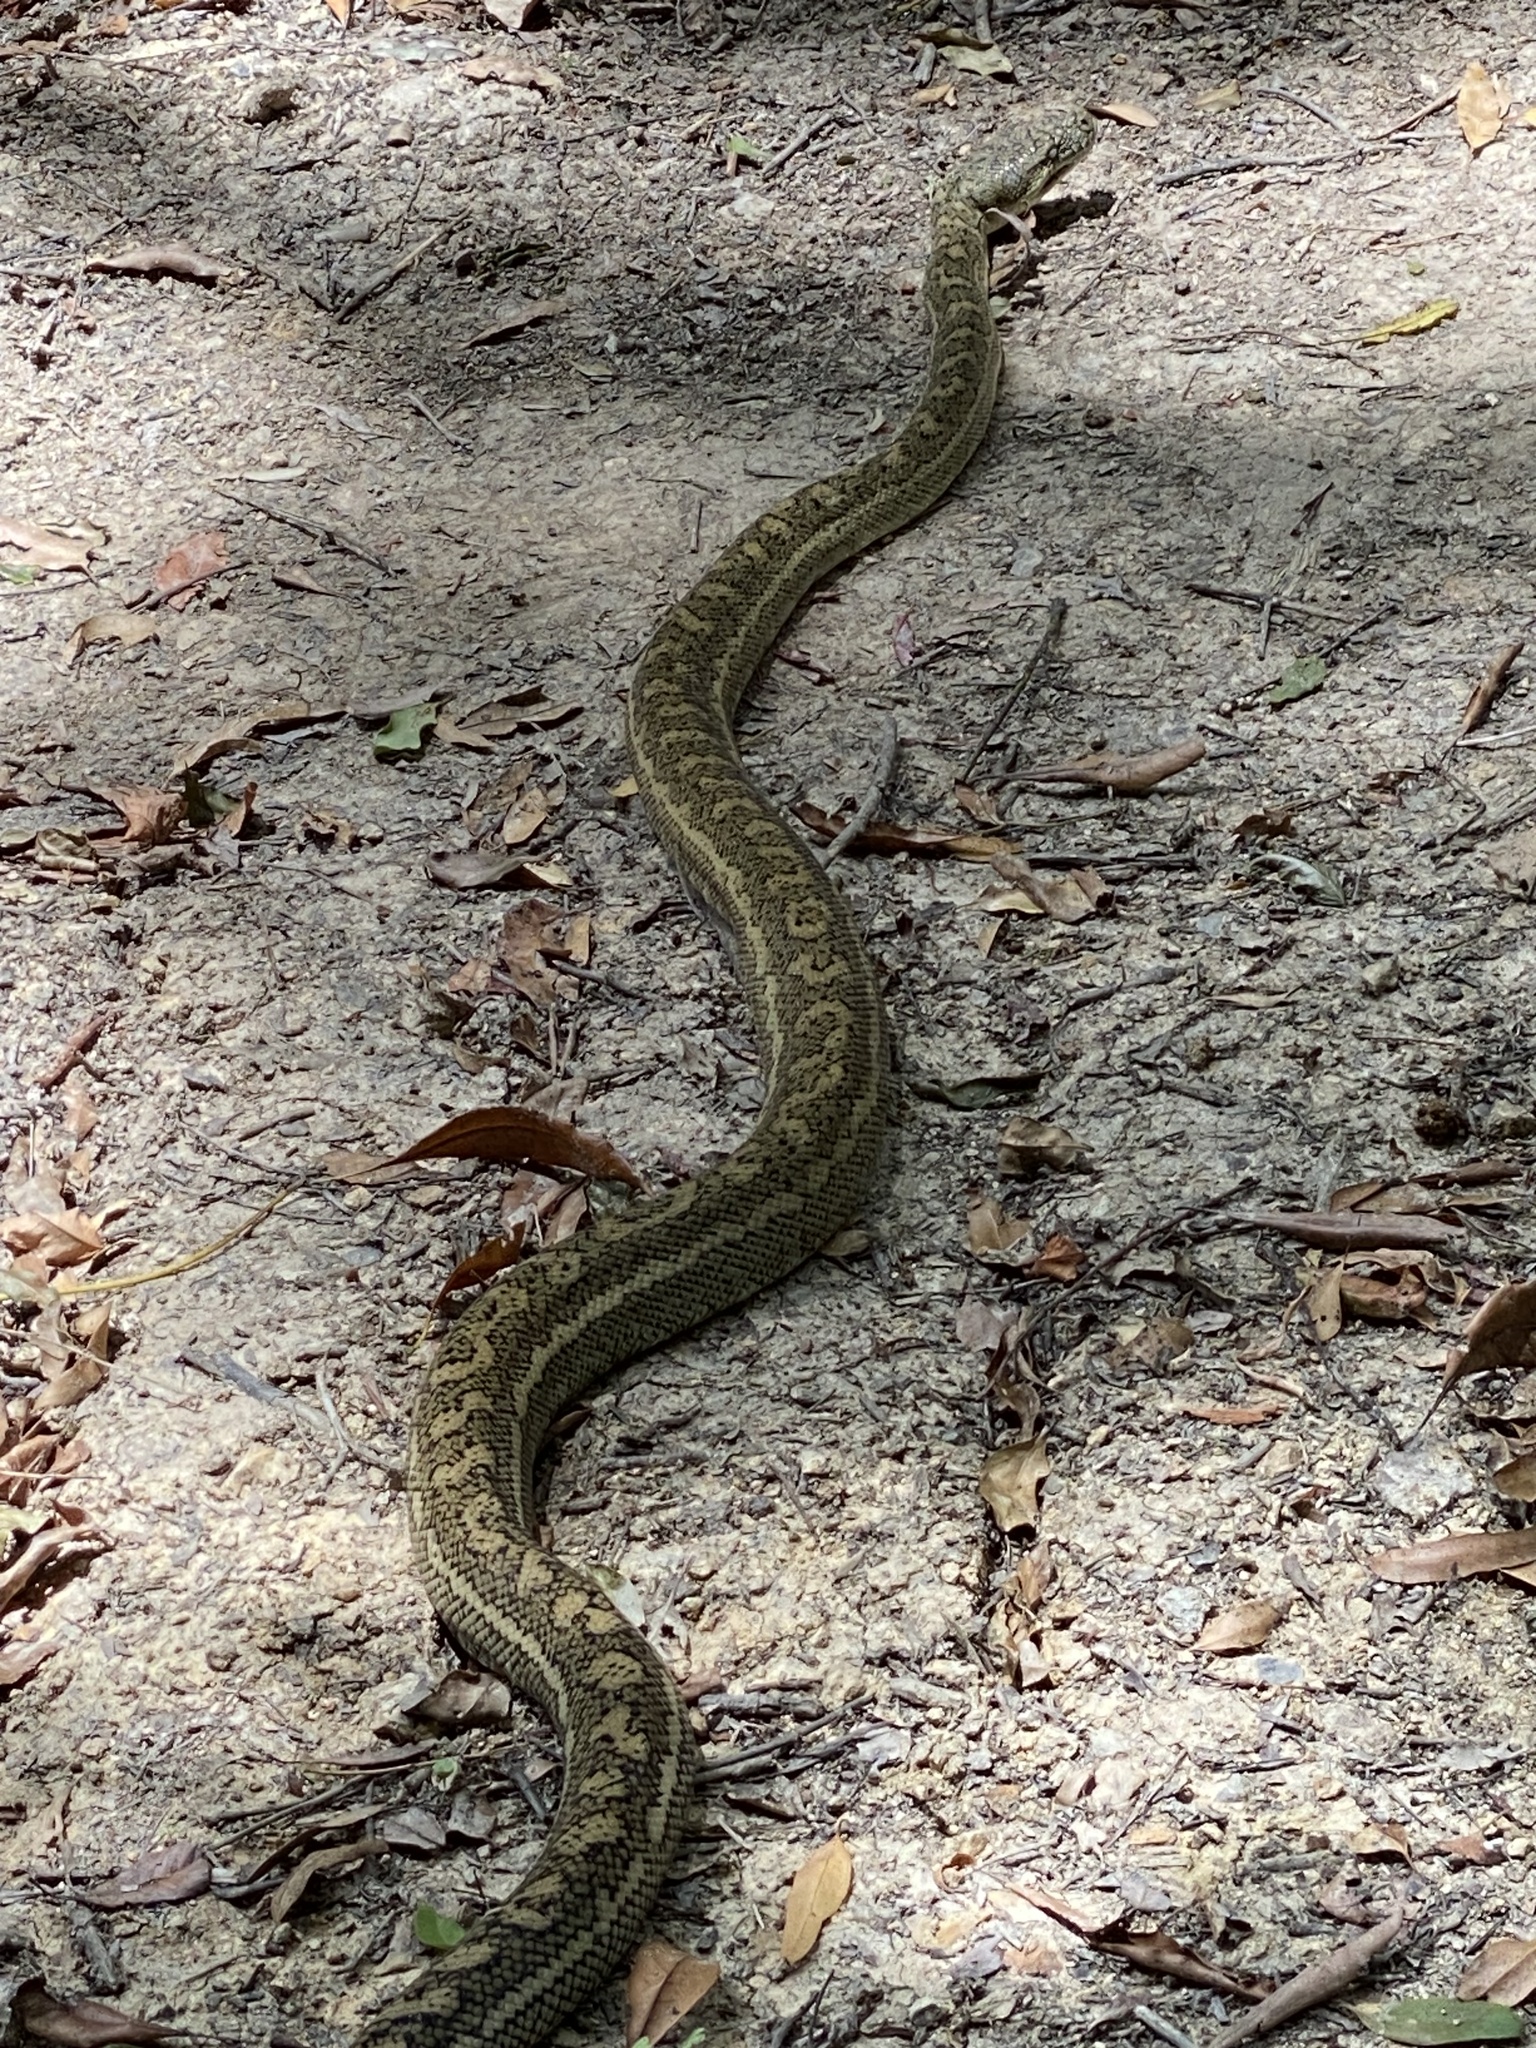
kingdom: Animalia
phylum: Chordata
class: Squamata
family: Pythonidae
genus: Morelia
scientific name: Morelia spilota
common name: Carpet python
